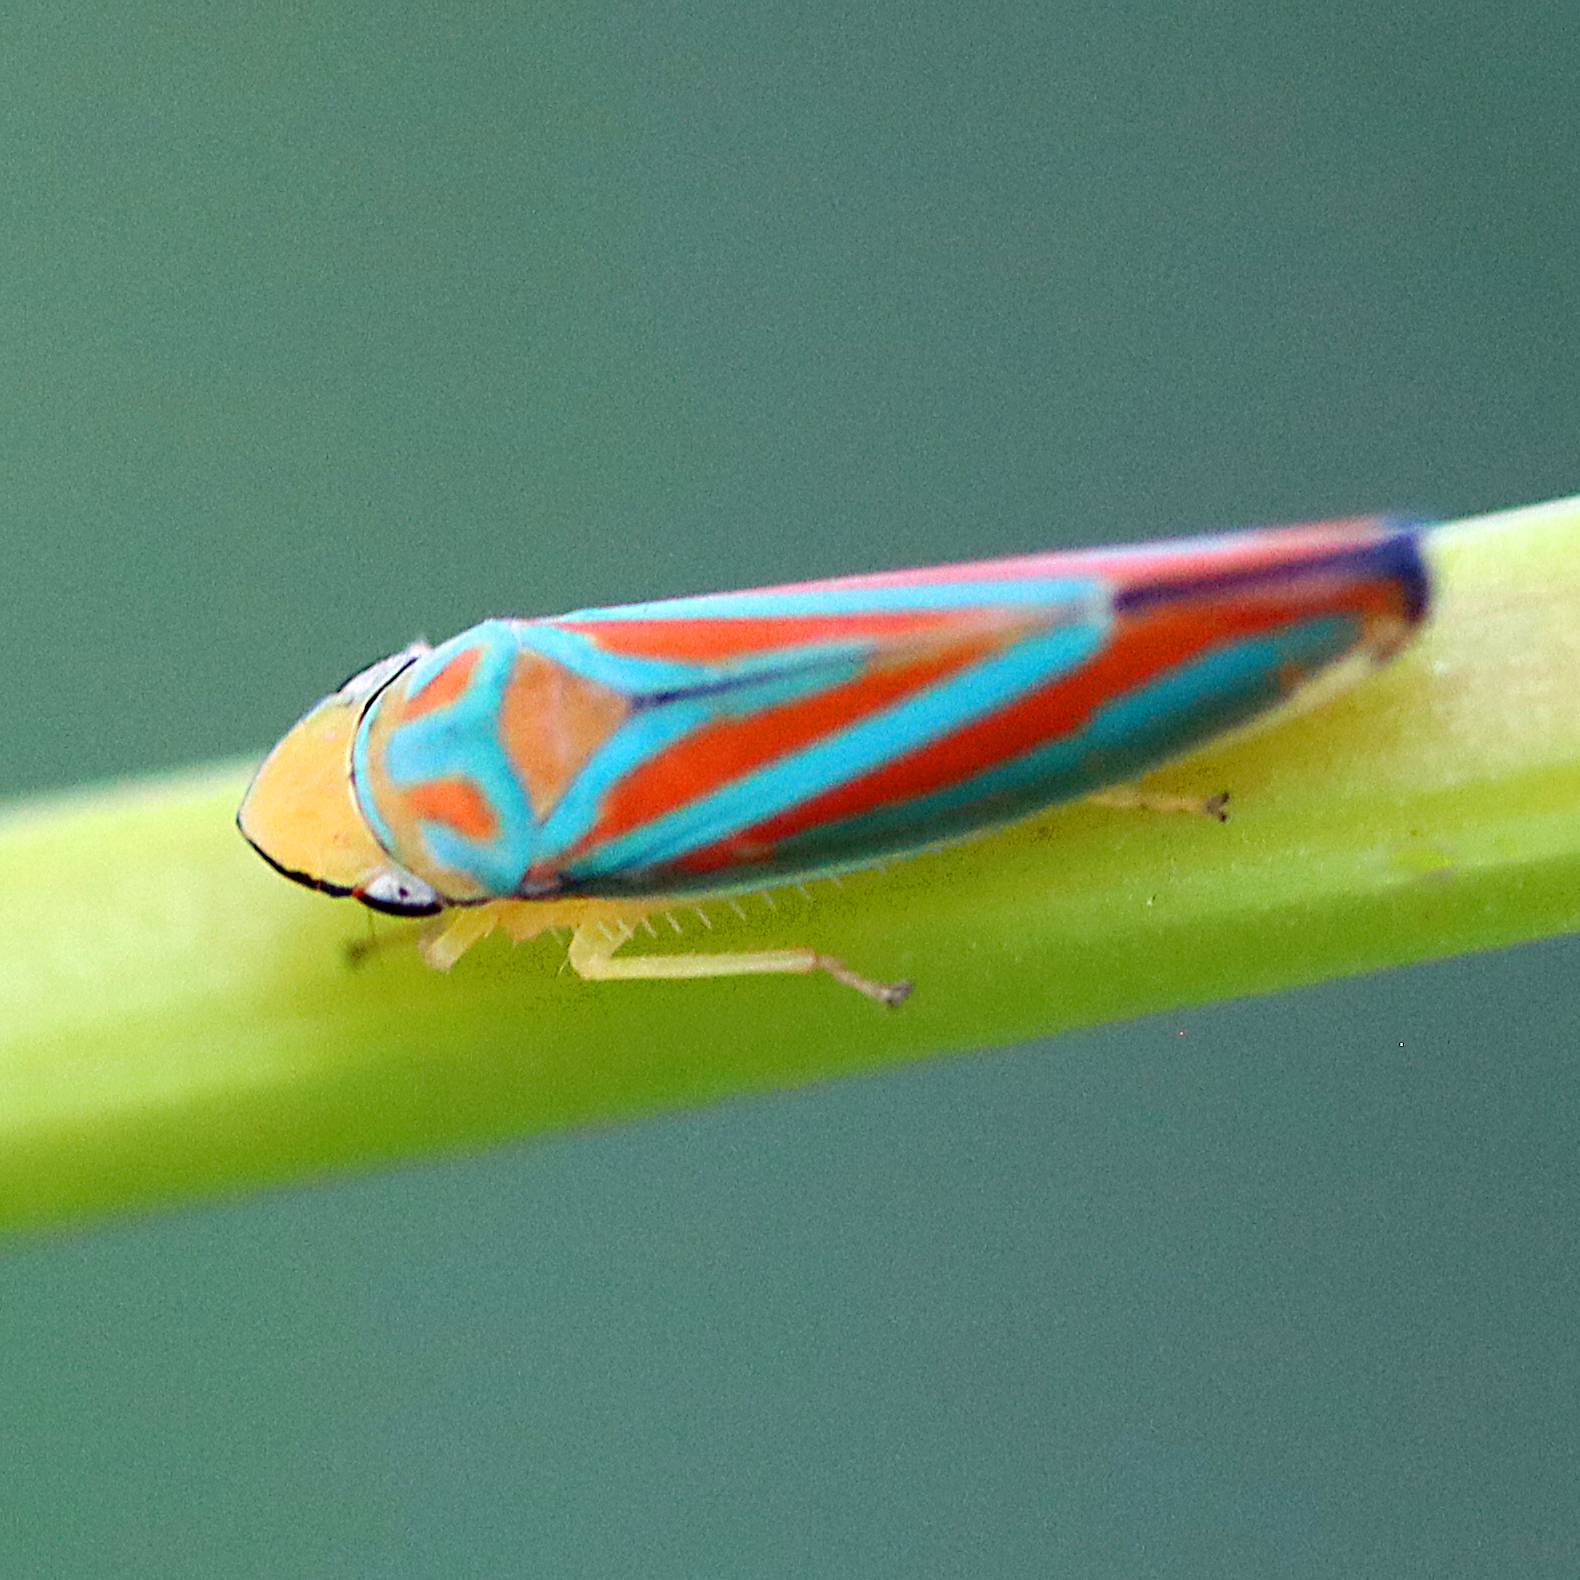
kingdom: Animalia
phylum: Arthropoda
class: Insecta
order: Hemiptera
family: Cicadellidae
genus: Graphocephala
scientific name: Graphocephala coccinea
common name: Candy-striped leafhopper
